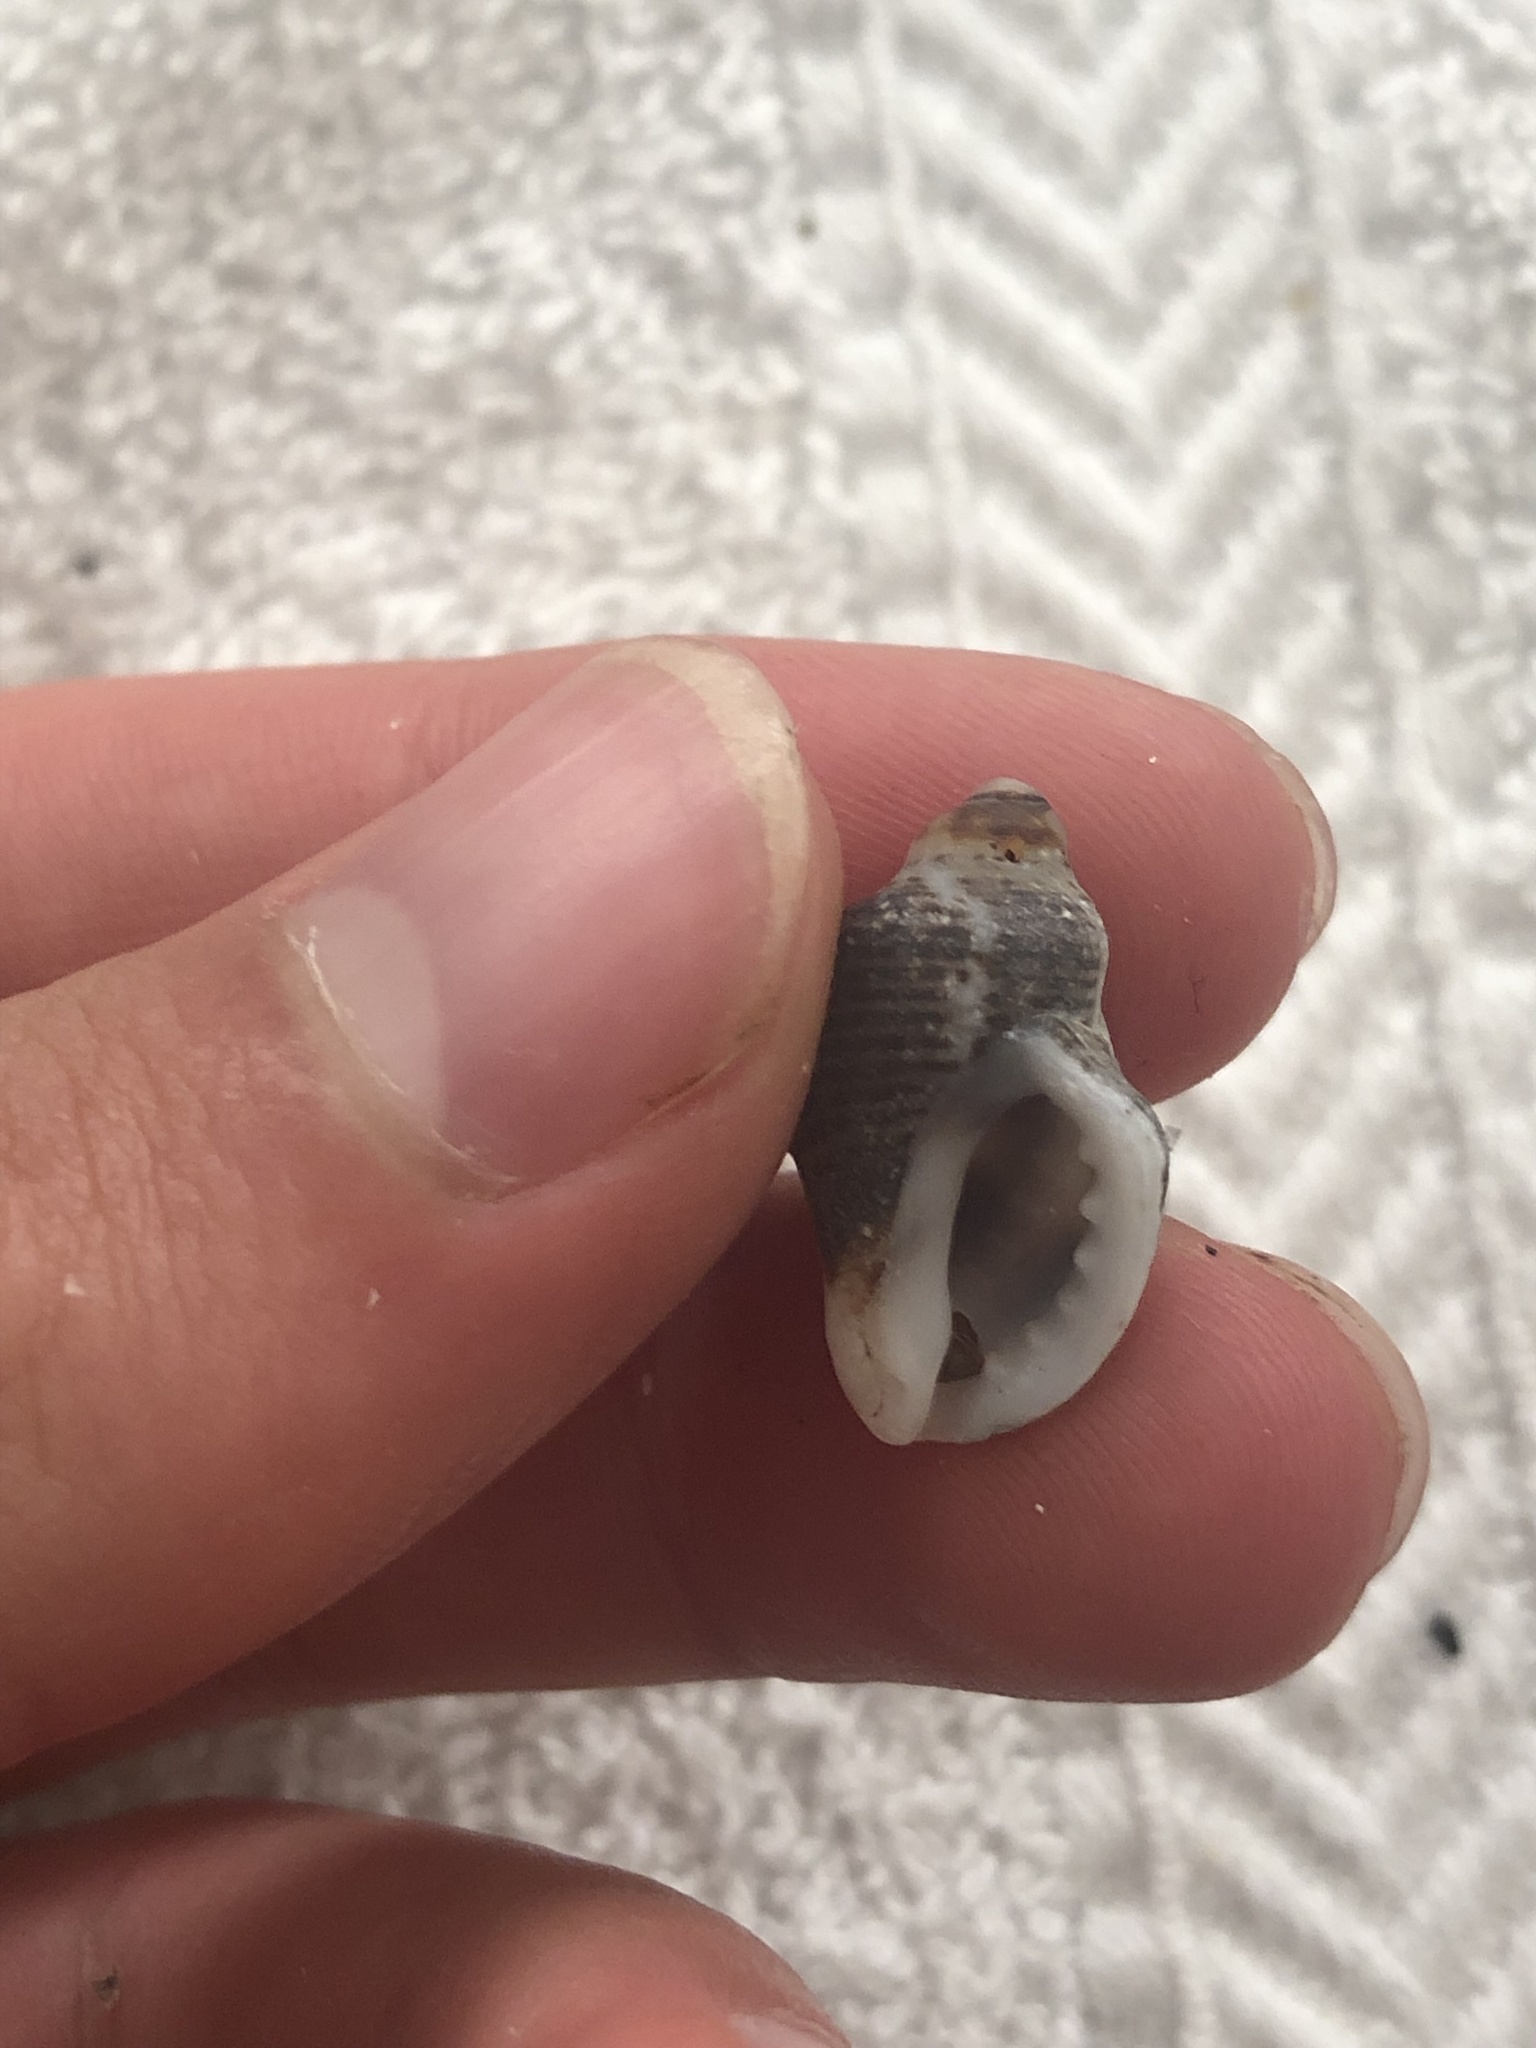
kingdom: Animalia
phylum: Mollusca
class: Gastropoda
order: Neogastropoda
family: Muricidae
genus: Acanthinucella
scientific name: Acanthinucella spirata
